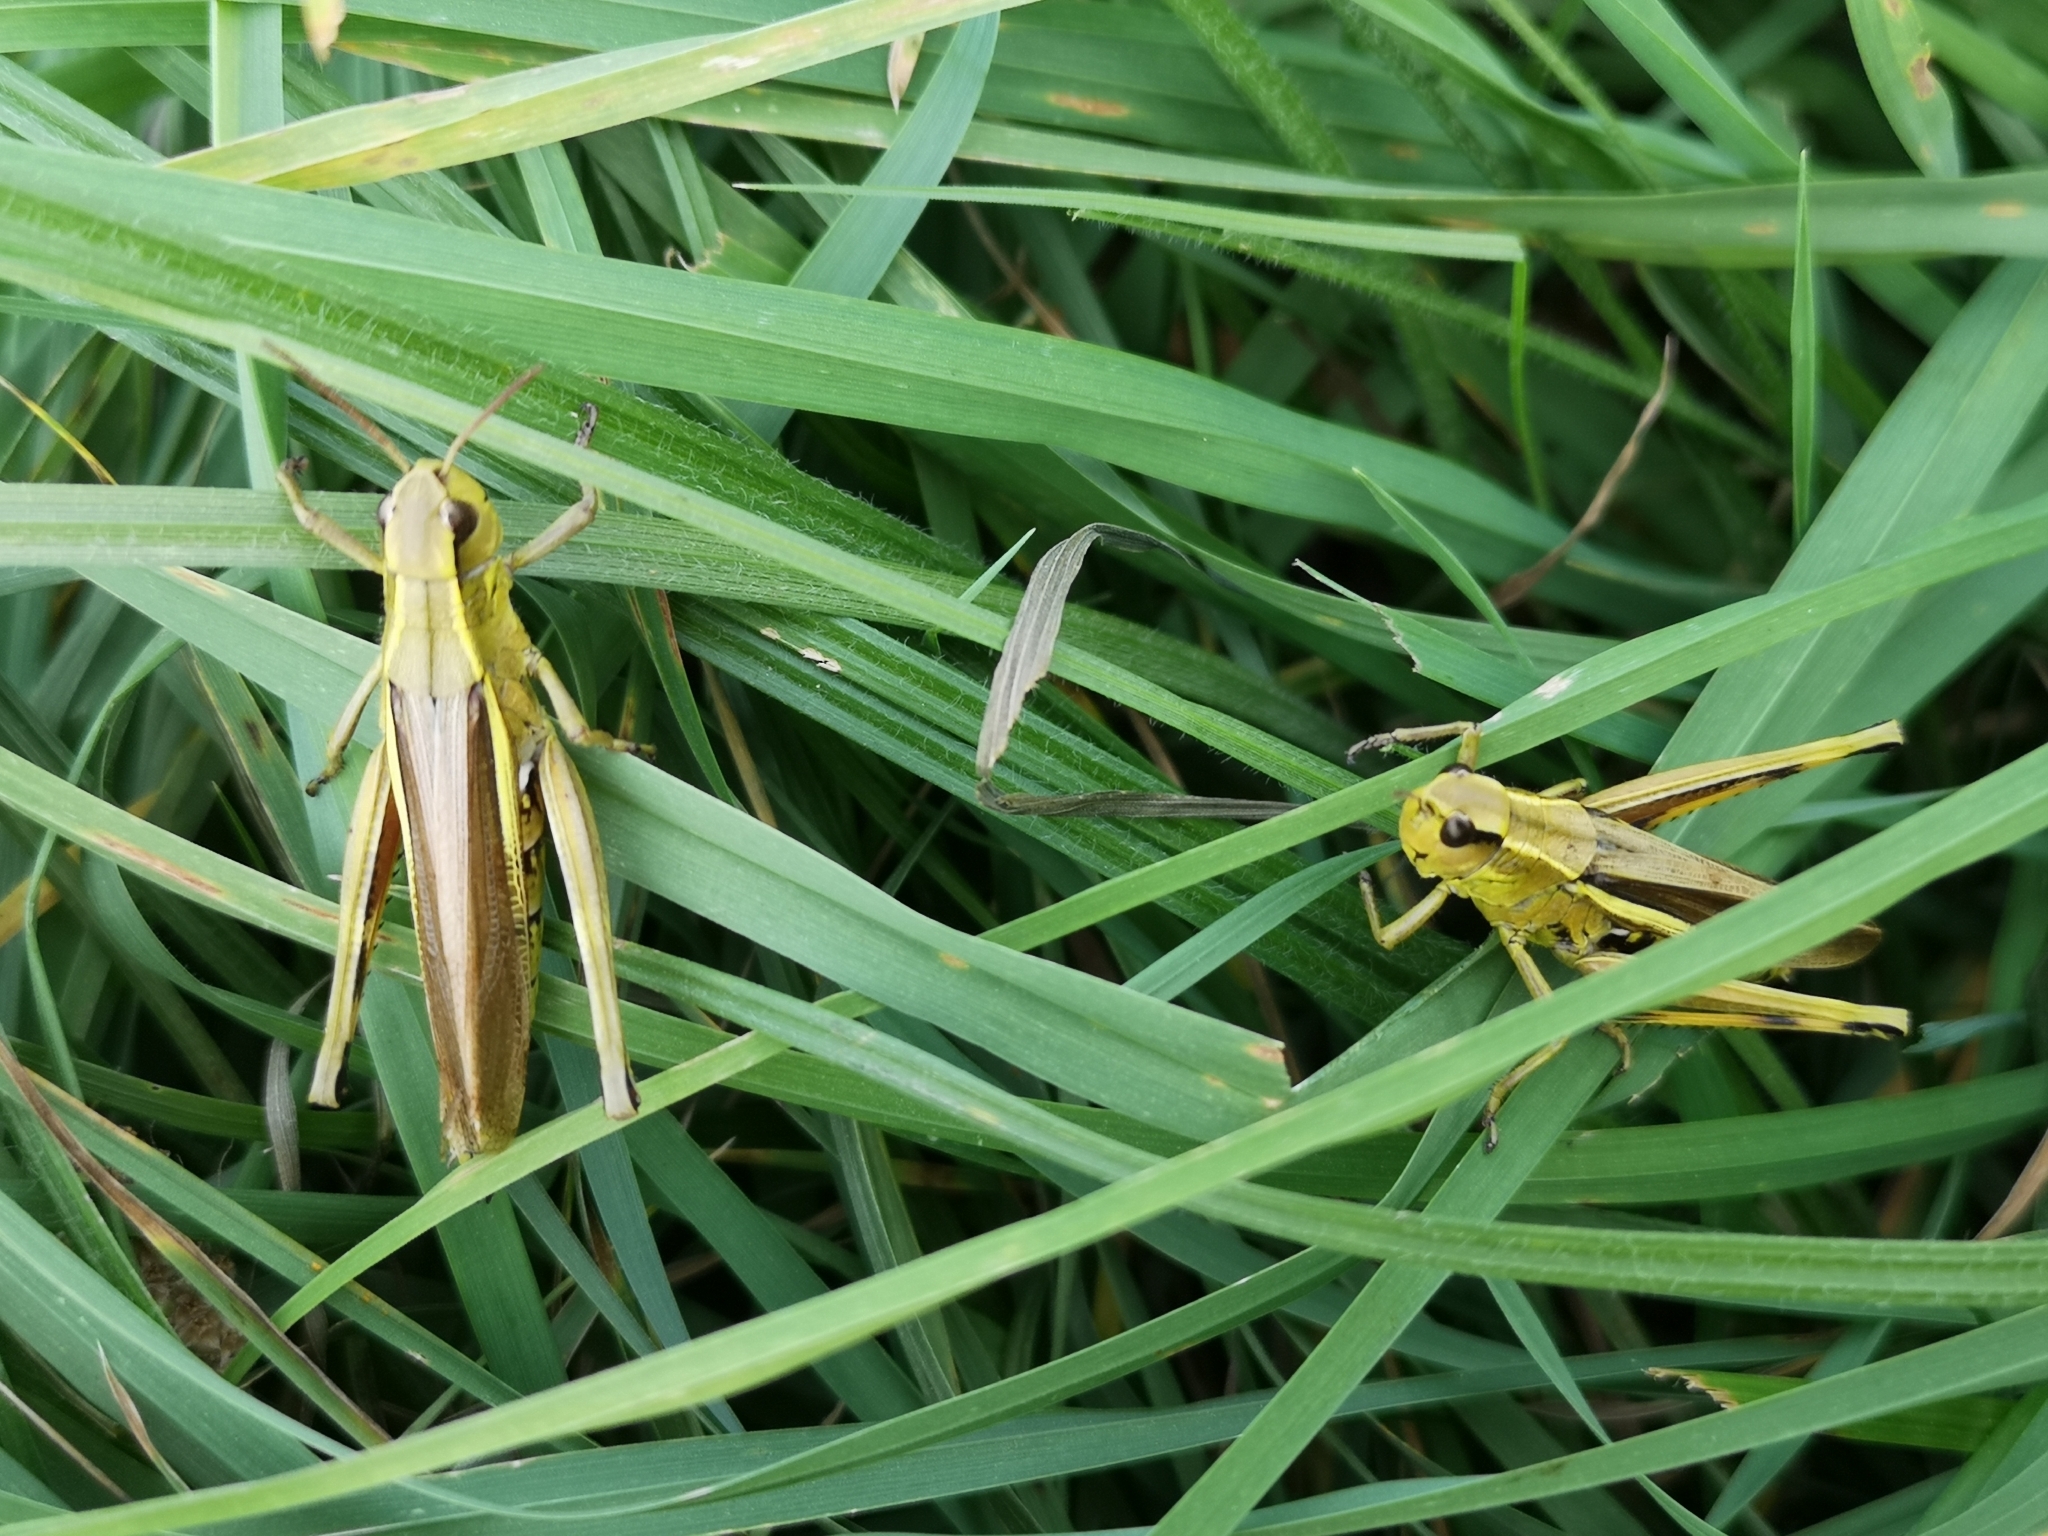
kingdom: Animalia
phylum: Arthropoda
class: Insecta
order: Orthoptera
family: Acrididae
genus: Stethophyma
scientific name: Stethophyma grossum
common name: Large marsh grasshopper
